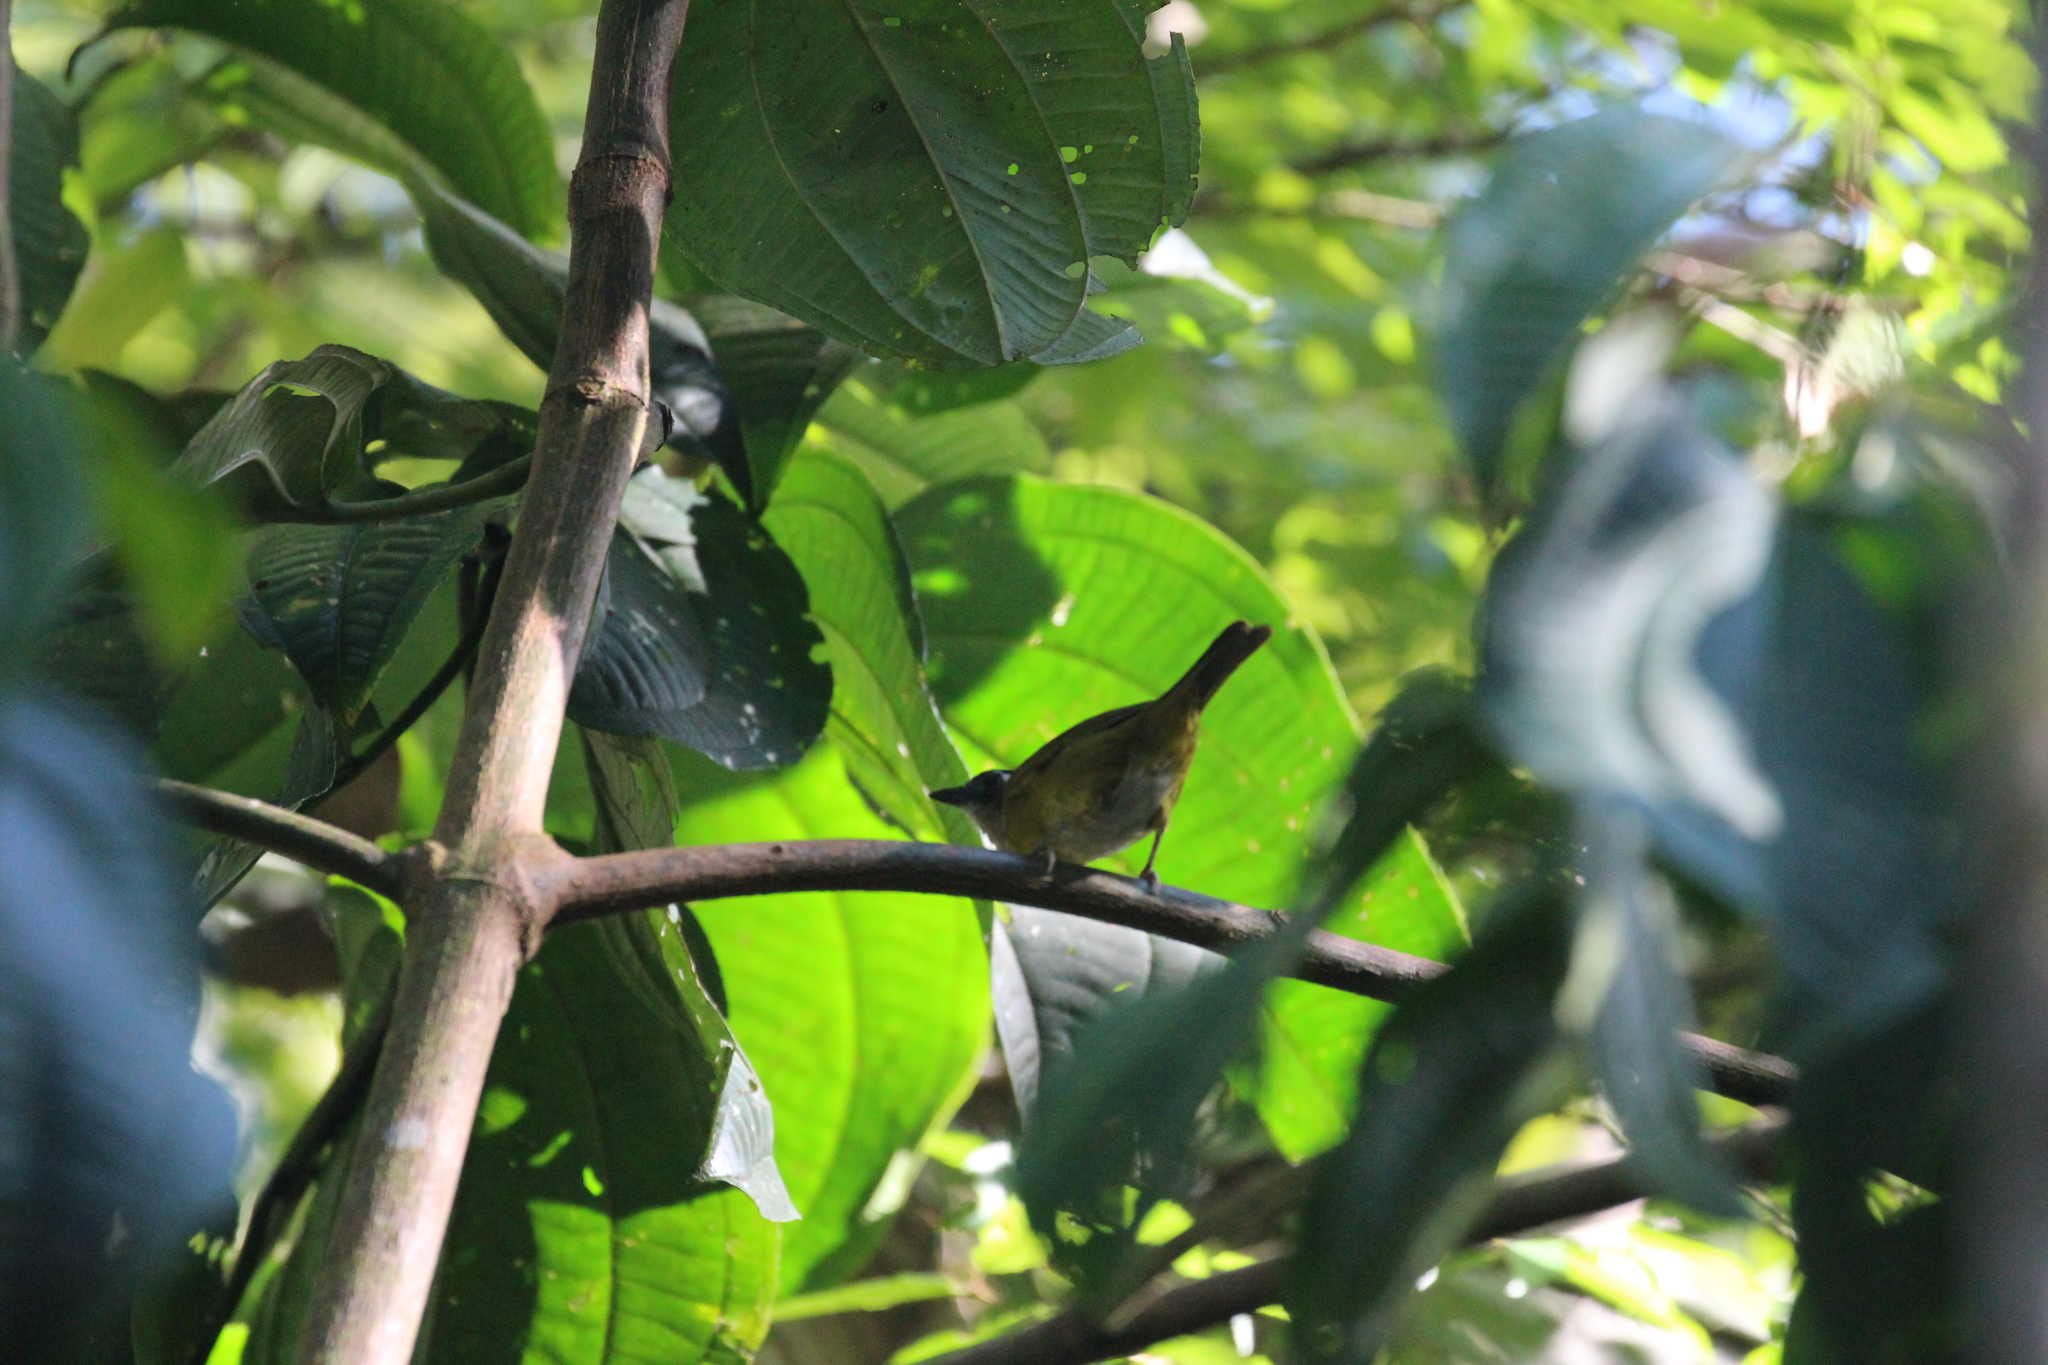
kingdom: Animalia
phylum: Chordata
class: Aves
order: Passeriformes
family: Passerellidae
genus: Chlorospingus
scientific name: Chlorospingus flavopectus
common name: Common chlorospingus
